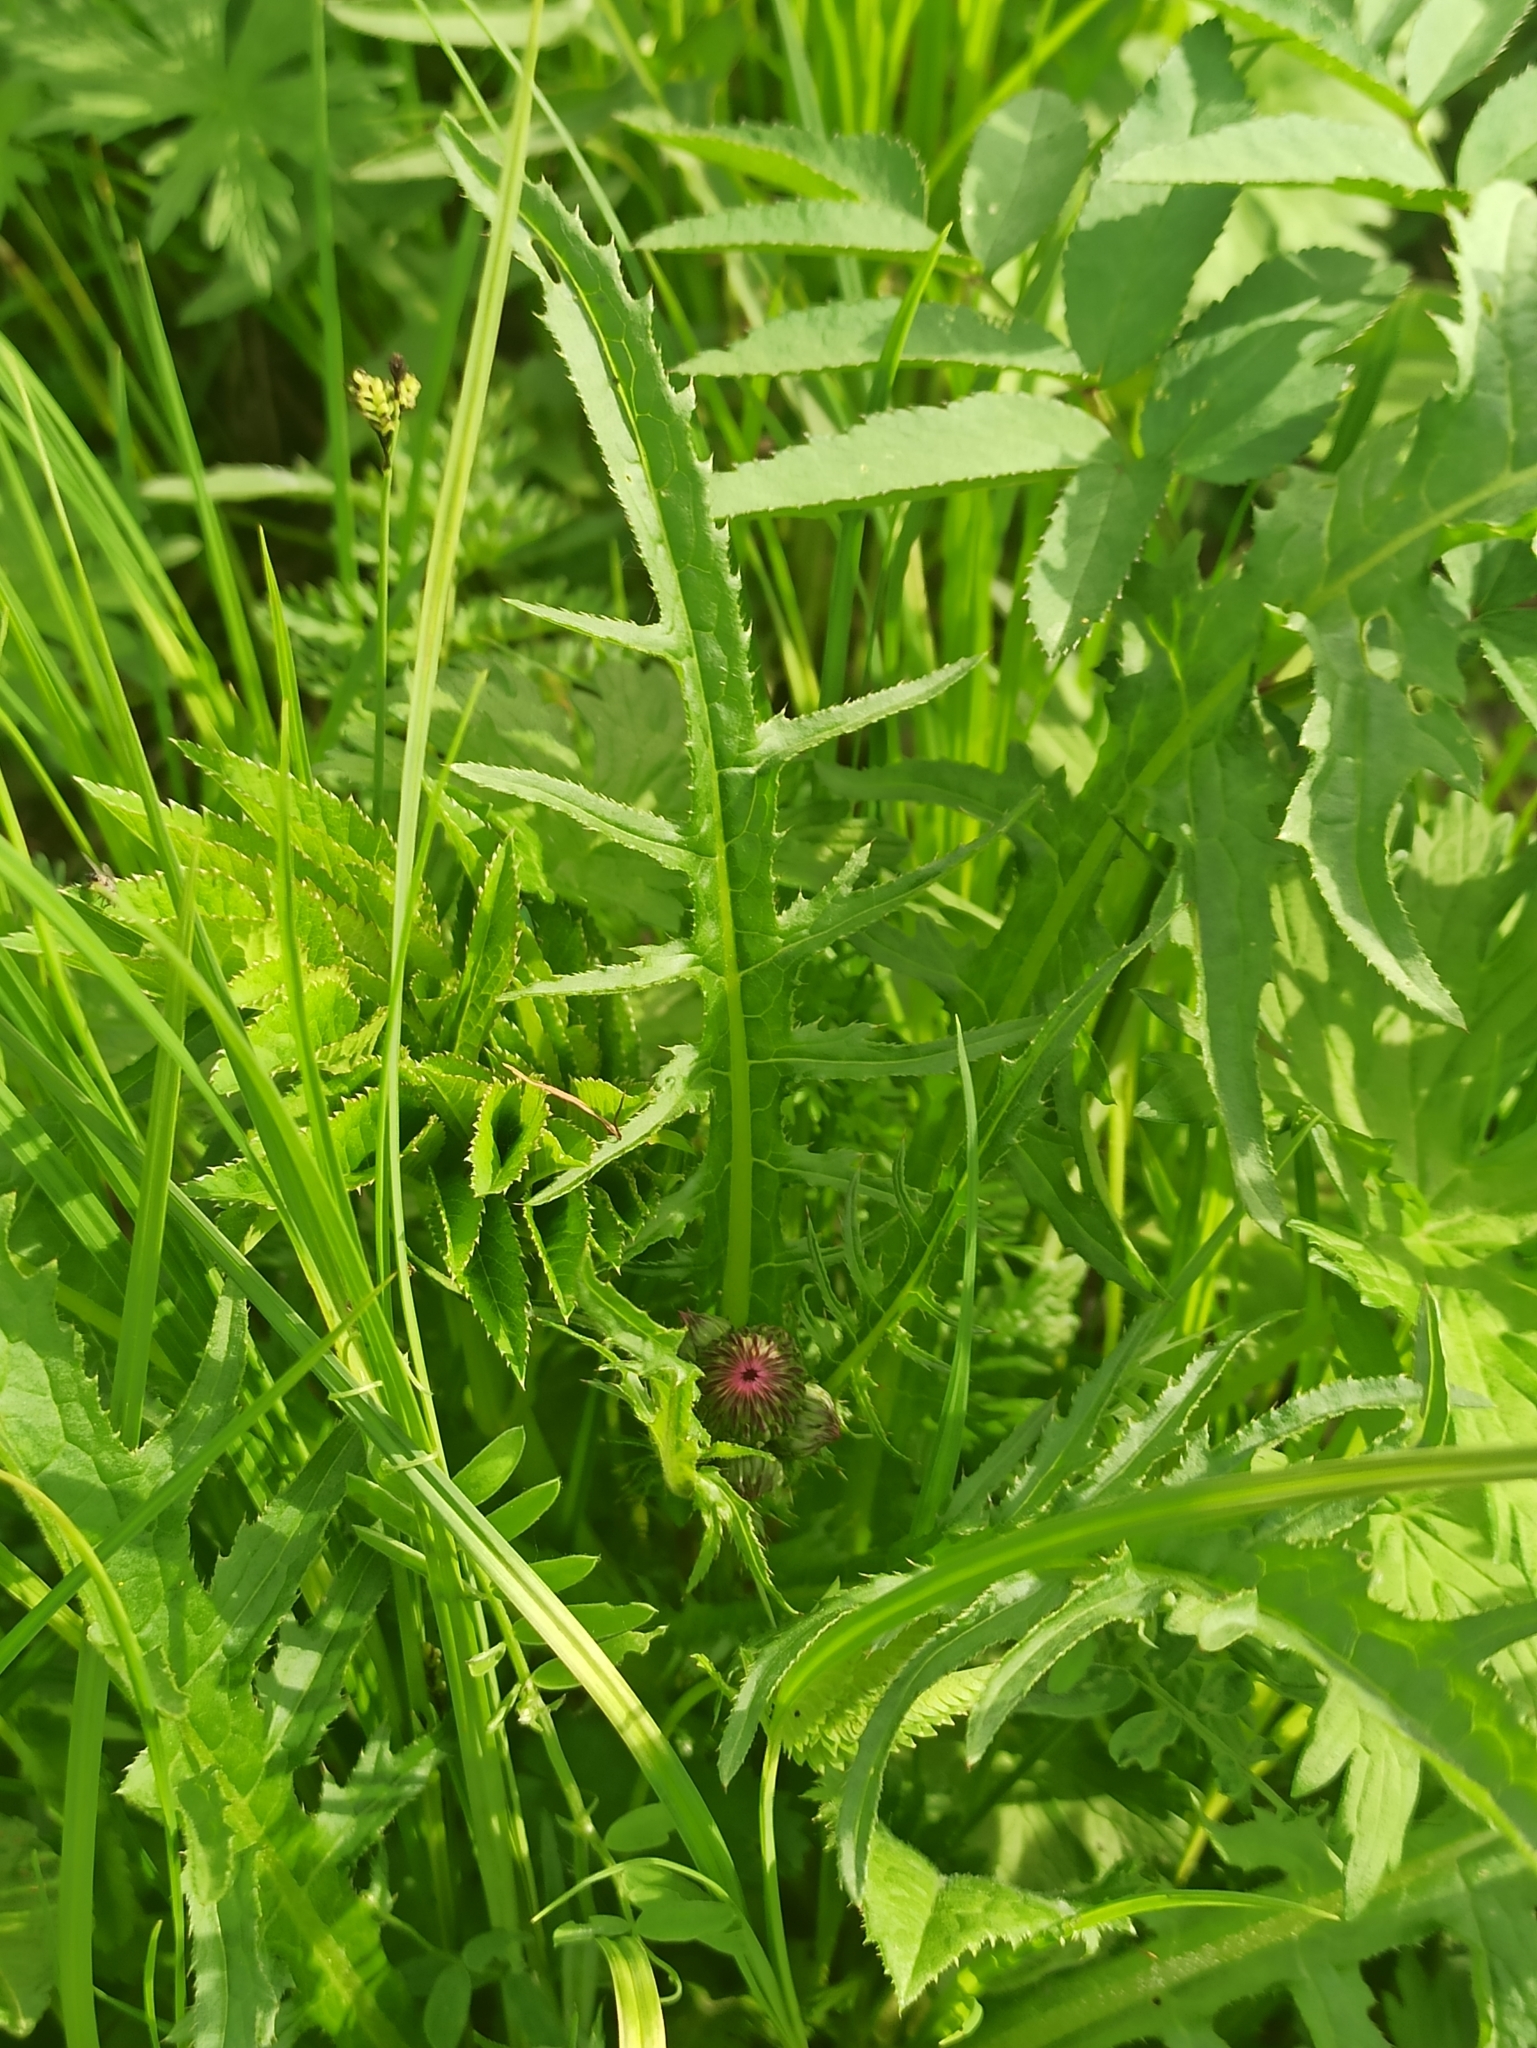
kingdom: Plantae
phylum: Tracheophyta
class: Magnoliopsida
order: Asterales
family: Asteraceae
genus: Cirsium
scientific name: Cirsium rivulare
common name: Brook thistle
